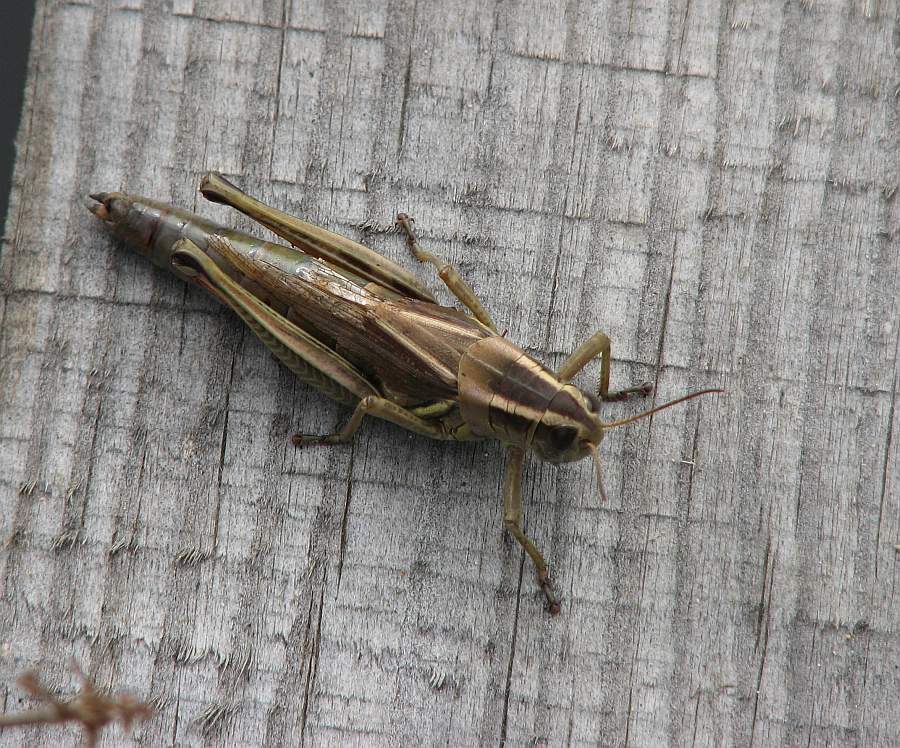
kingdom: Animalia
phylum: Arthropoda
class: Insecta
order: Orthoptera
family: Acrididae
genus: Melanoplus
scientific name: Melanoplus bivittatus
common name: Two-striped grasshopper
